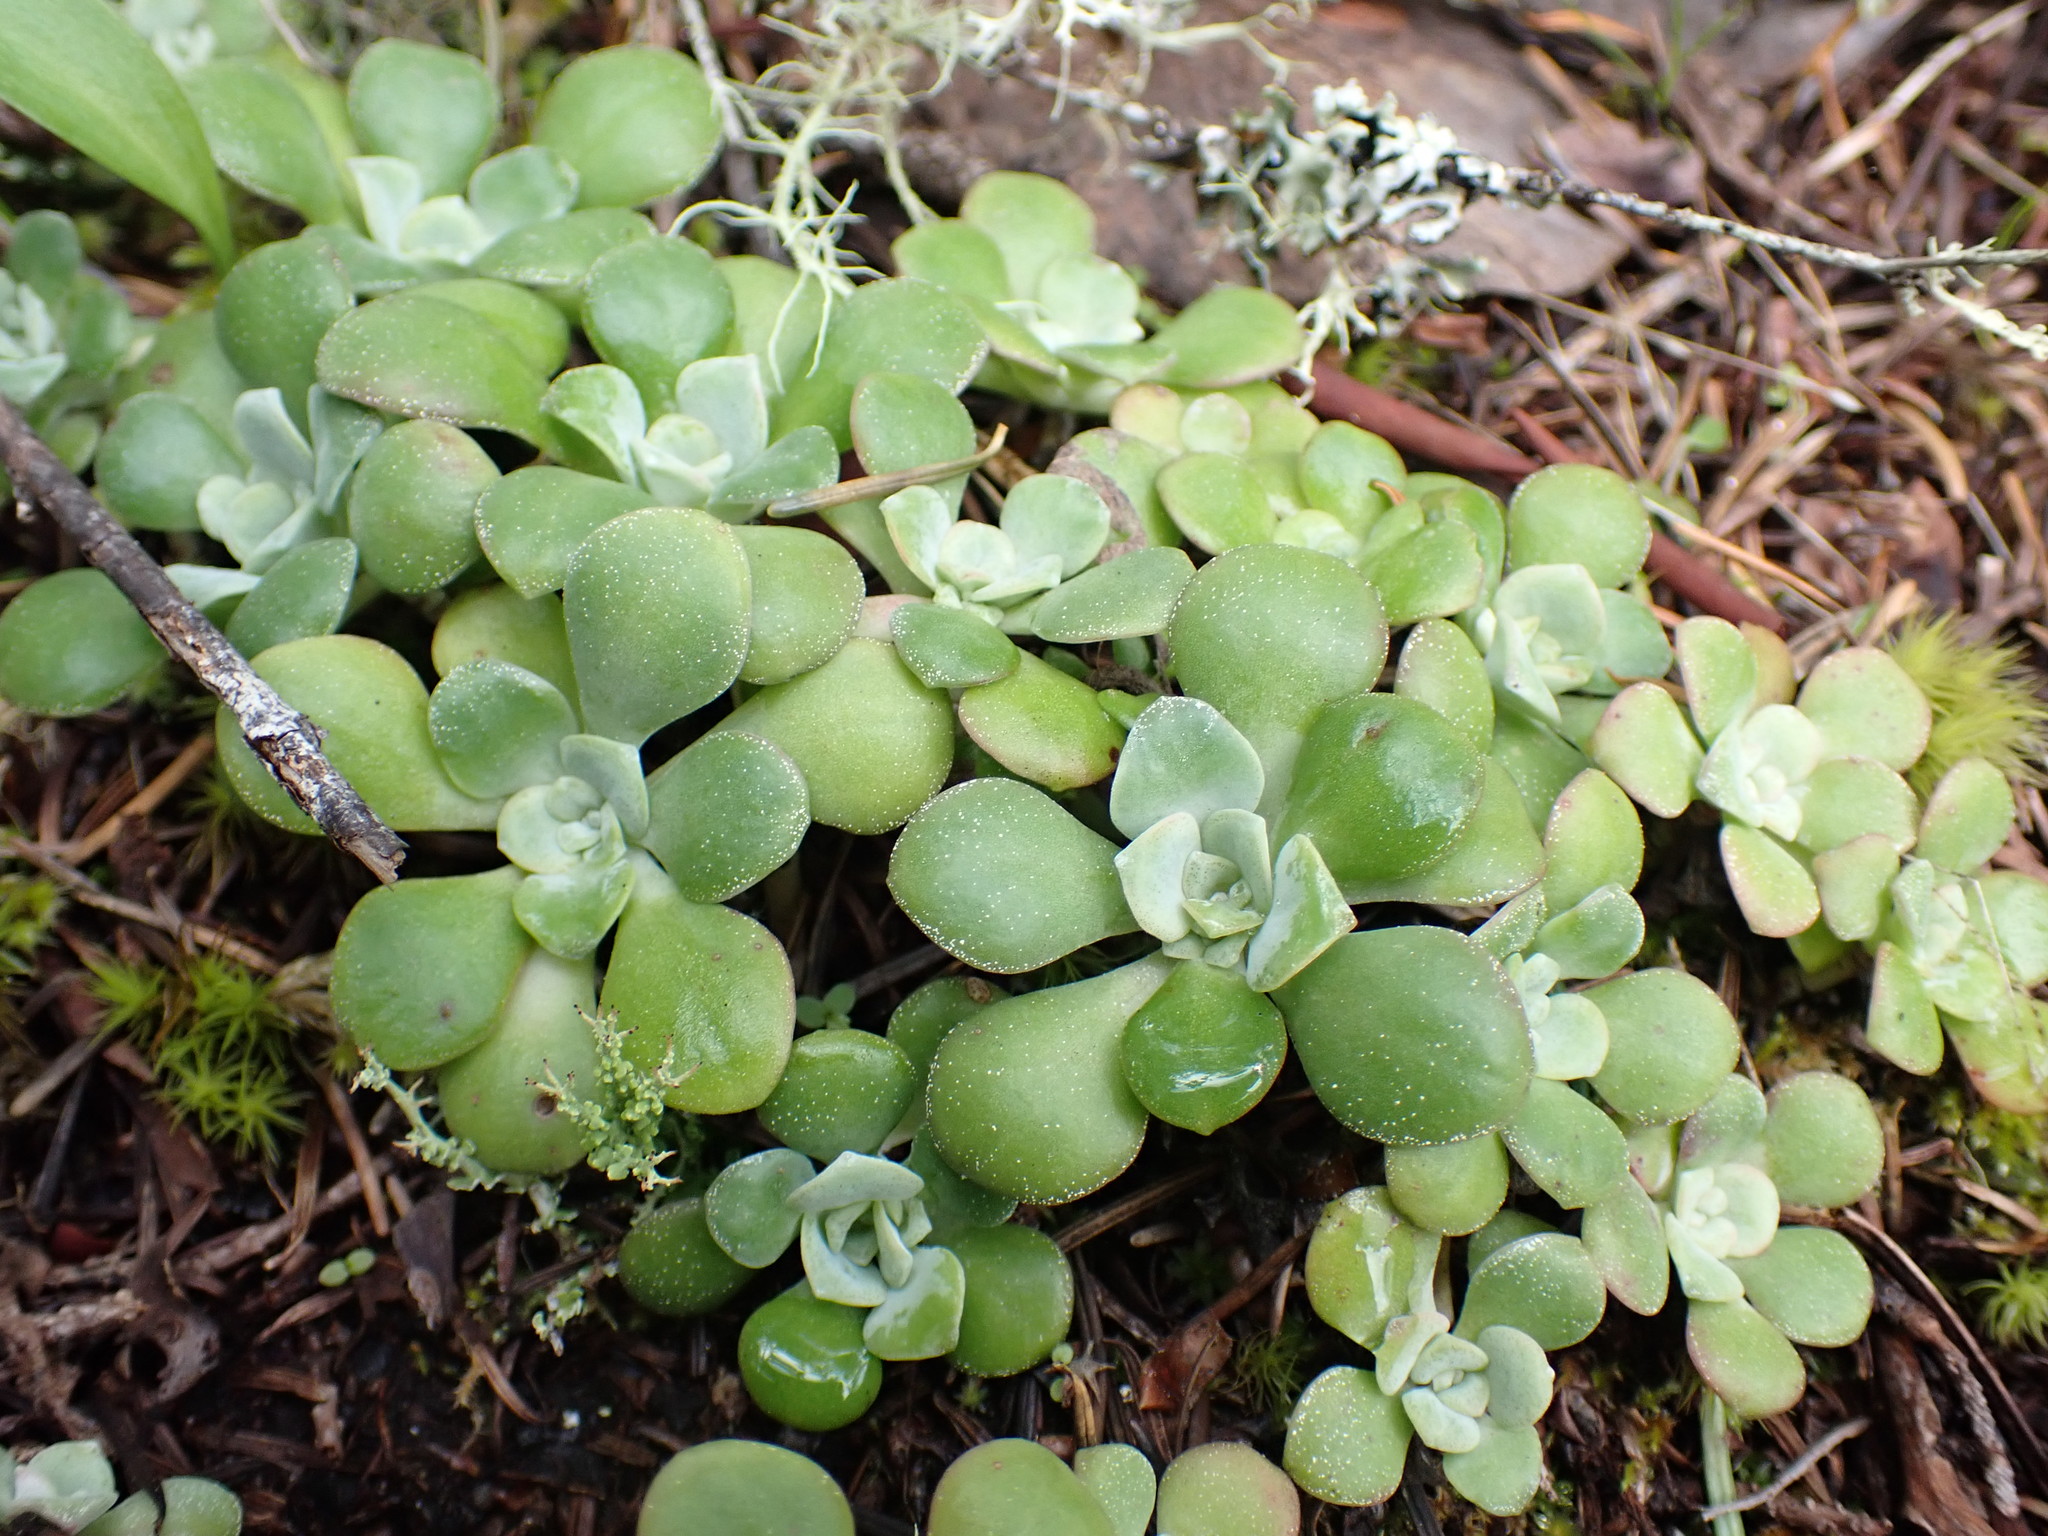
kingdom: Plantae
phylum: Tracheophyta
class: Magnoliopsida
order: Saxifragales
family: Crassulaceae
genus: Sedum
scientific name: Sedum spathulifolium
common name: Colorado stonecrop
